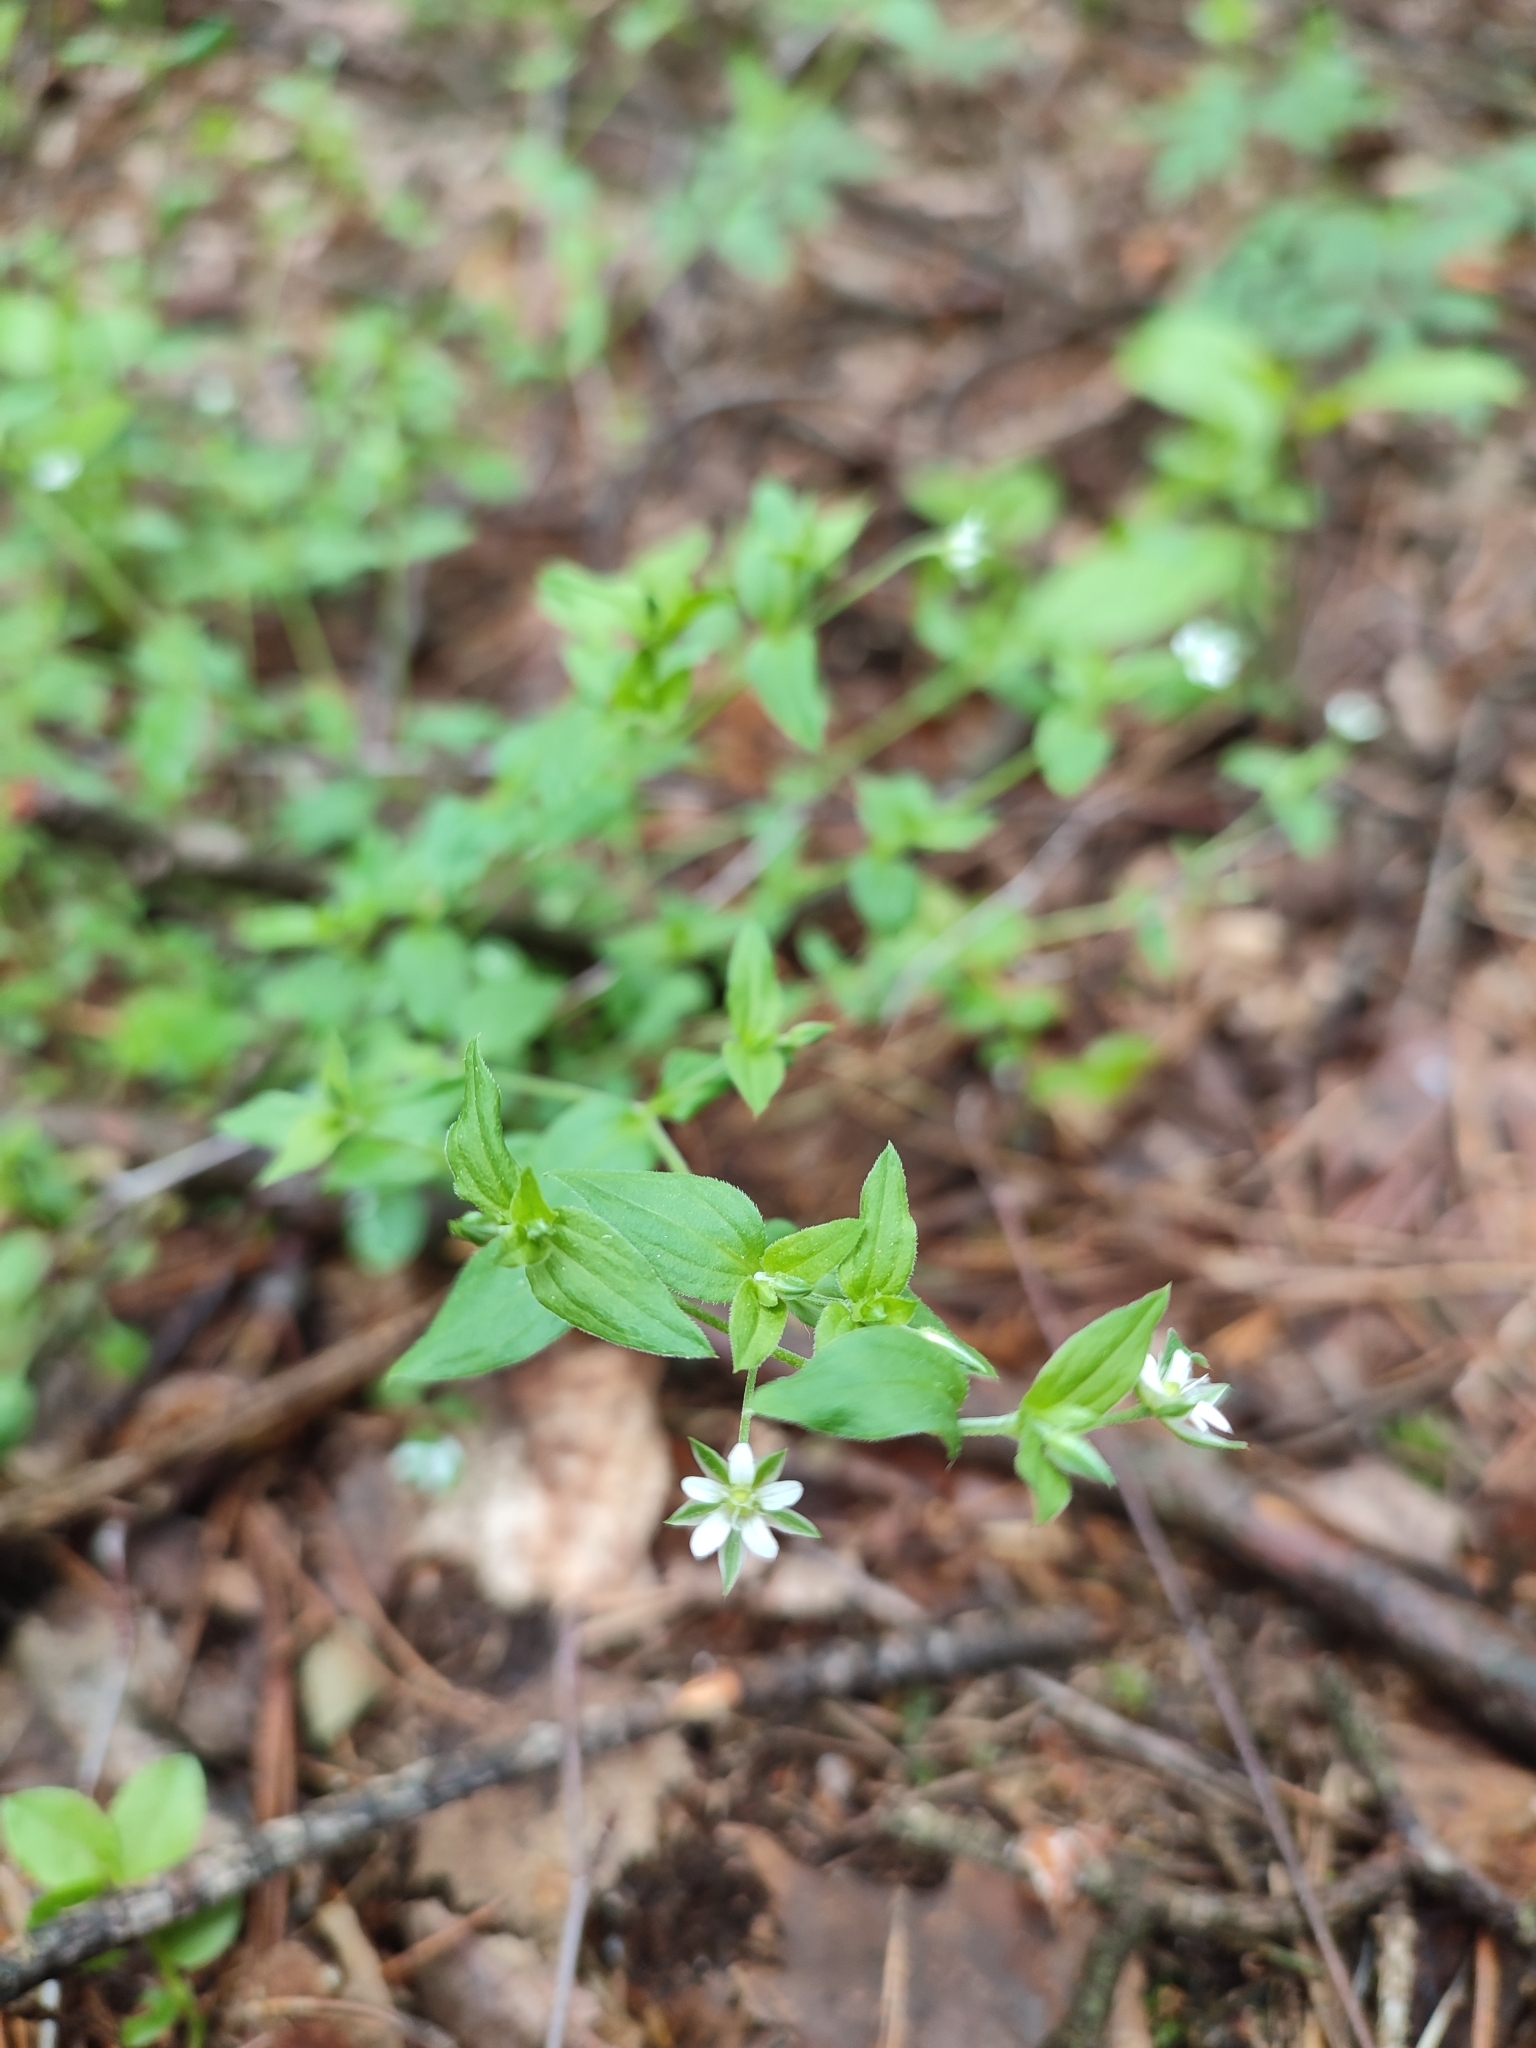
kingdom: Plantae
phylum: Tracheophyta
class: Magnoliopsida
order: Caryophyllales
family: Caryophyllaceae
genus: Moehringia
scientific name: Moehringia trinervia
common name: Three-nerved sandwort
